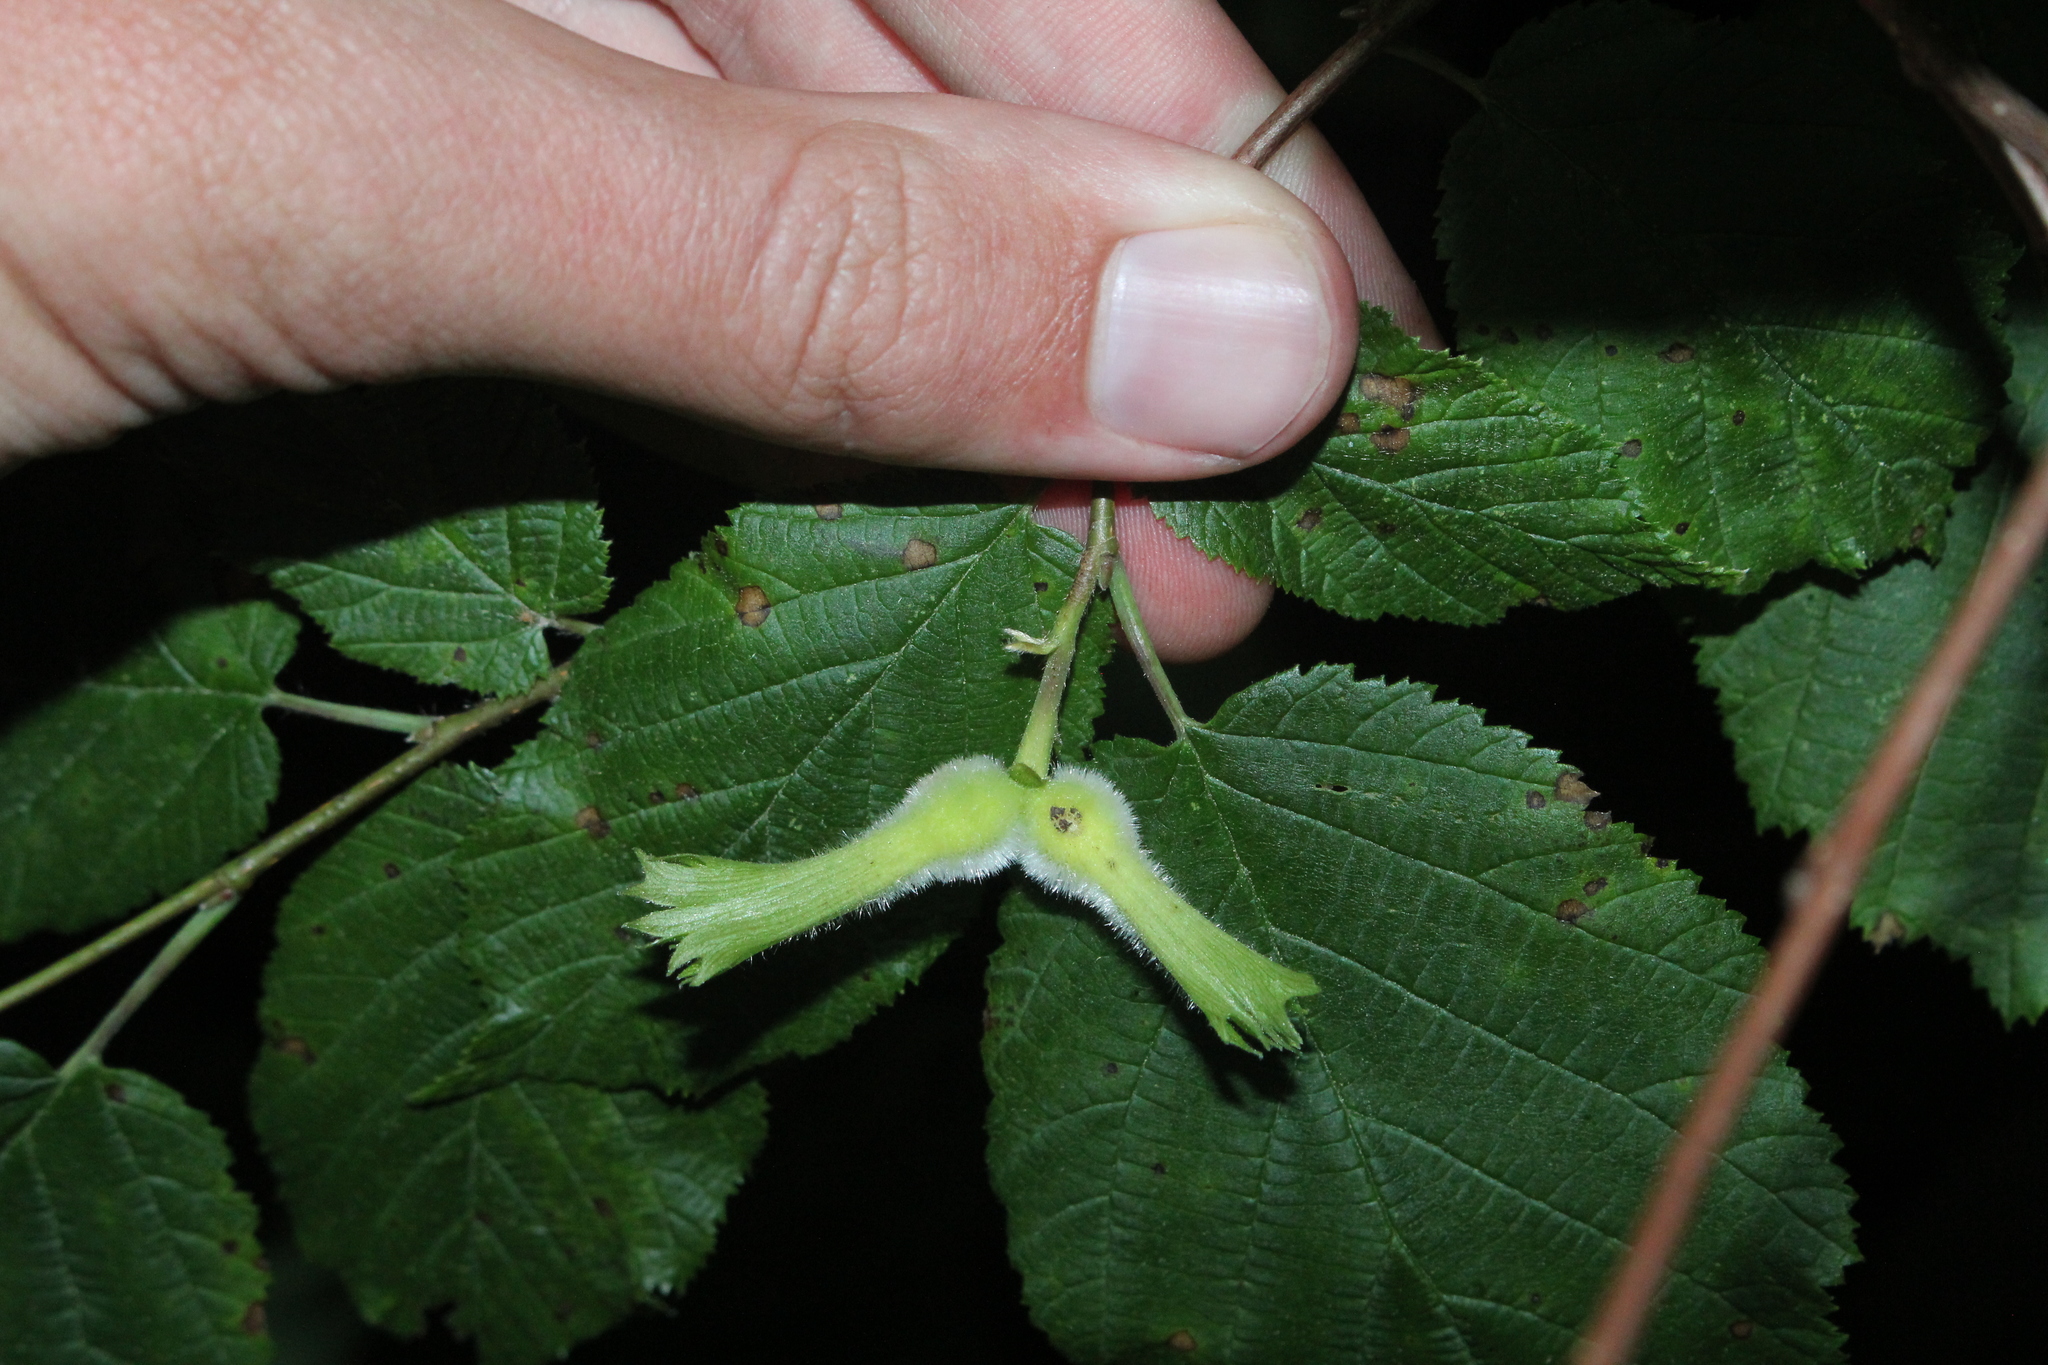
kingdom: Plantae
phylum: Tracheophyta
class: Magnoliopsida
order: Fagales
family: Betulaceae
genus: Corylus
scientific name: Corylus cornuta
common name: Beaked hazel
